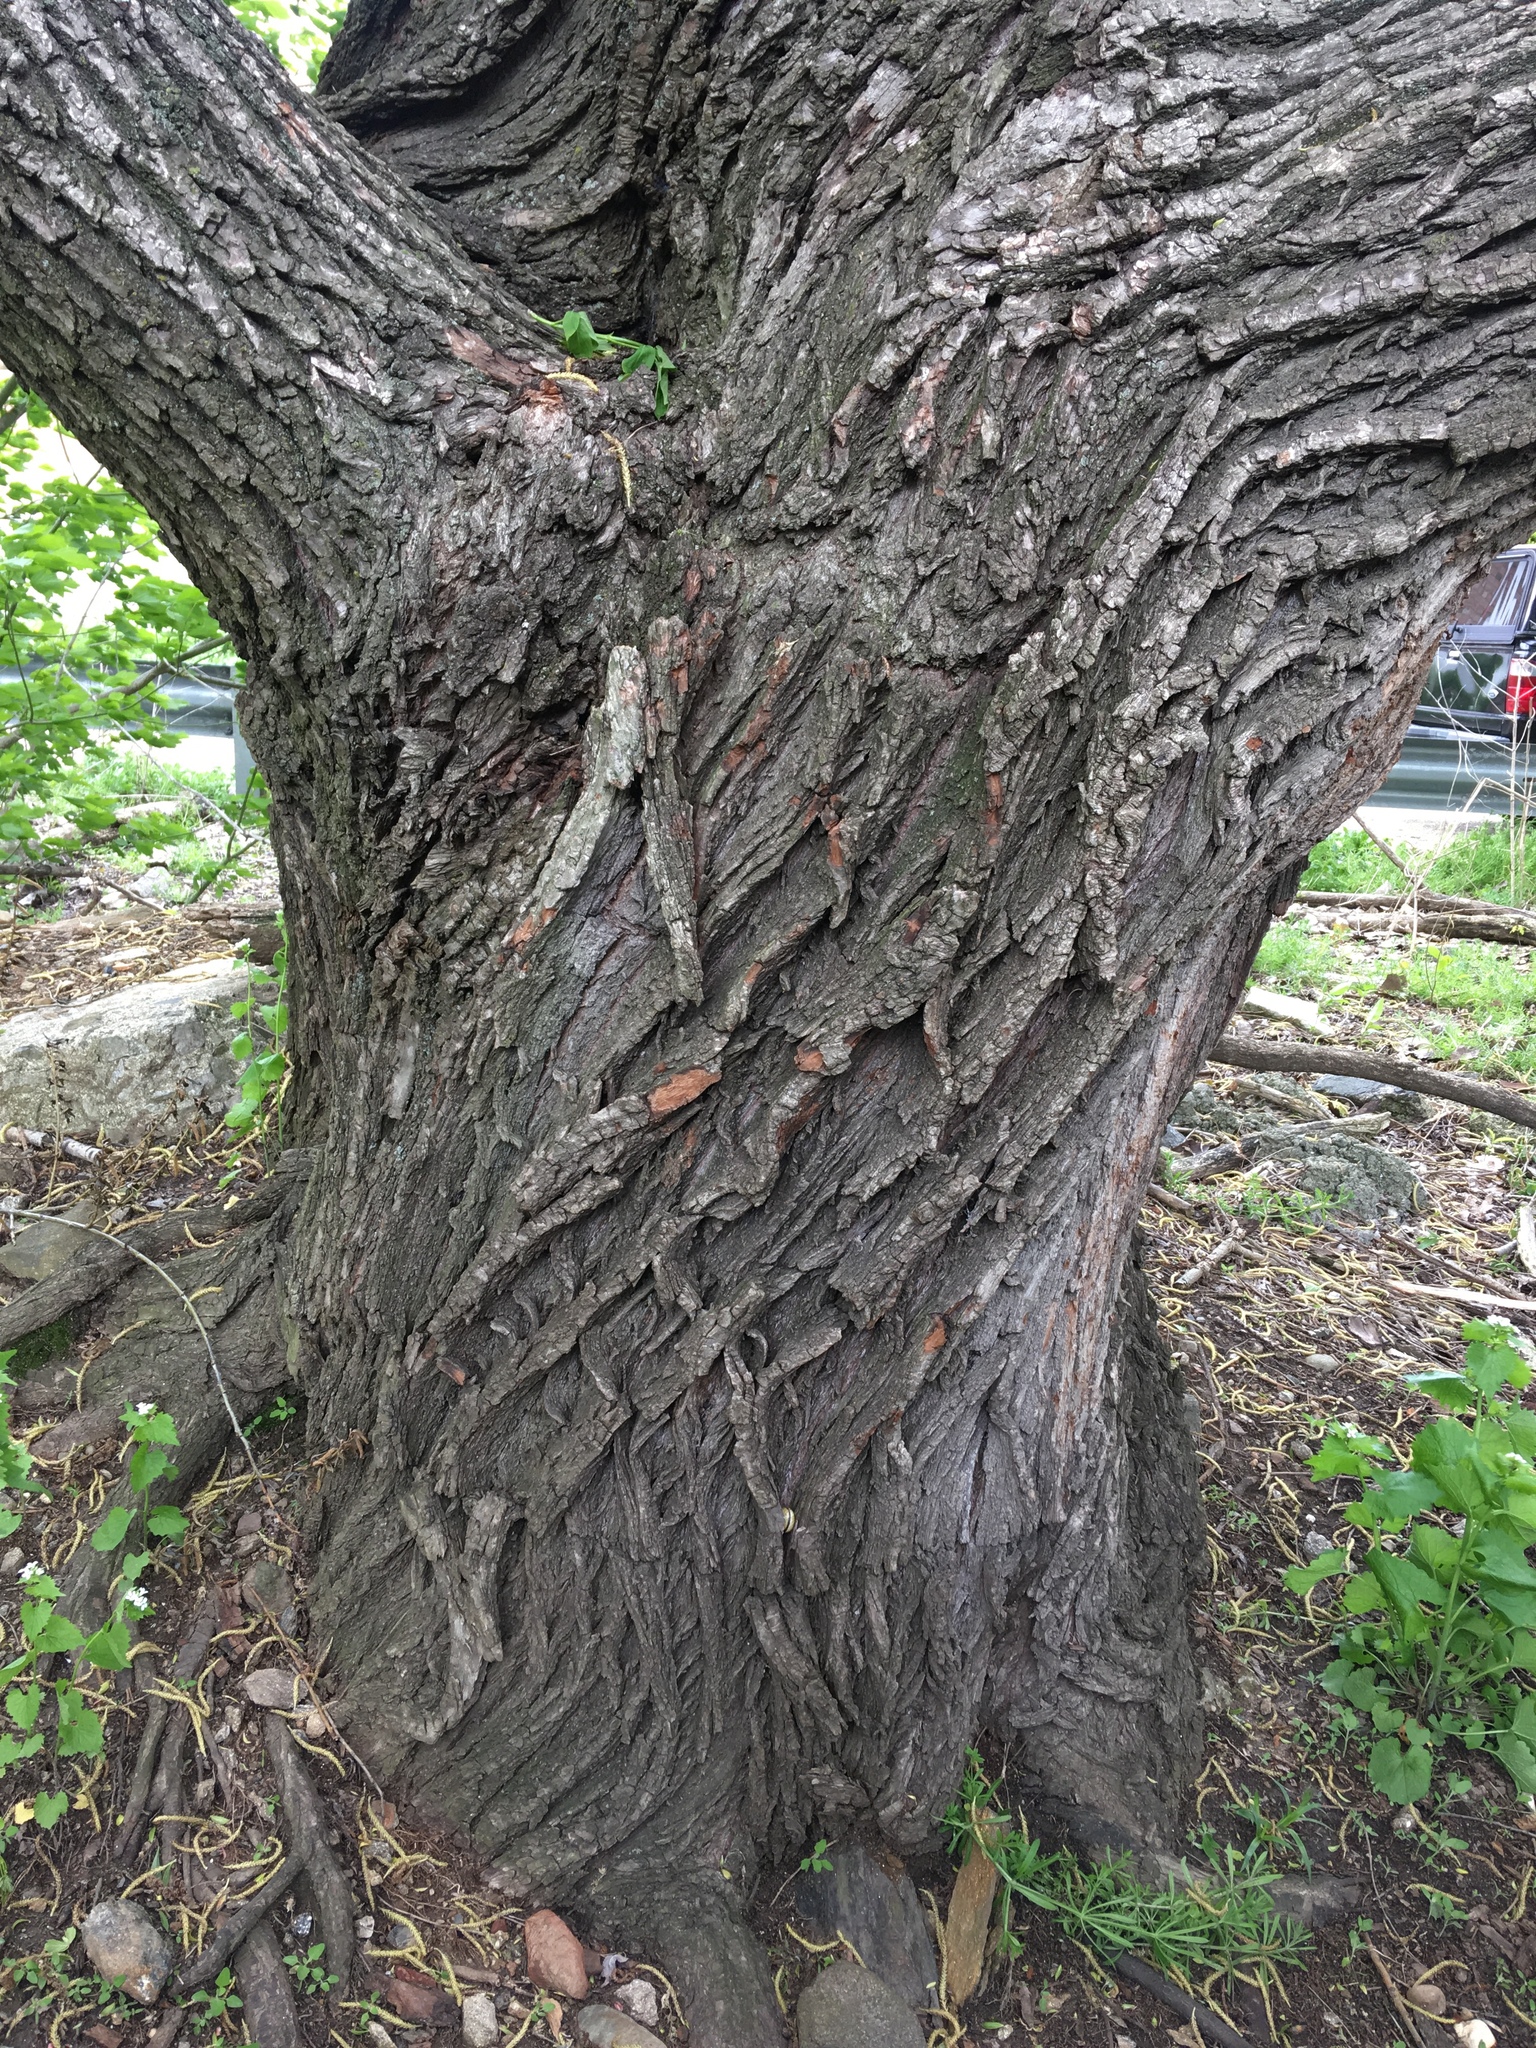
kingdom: Plantae
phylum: Tracheophyta
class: Magnoliopsida
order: Rosales
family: Moraceae
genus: Morus
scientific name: Morus alba
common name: White mulberry
